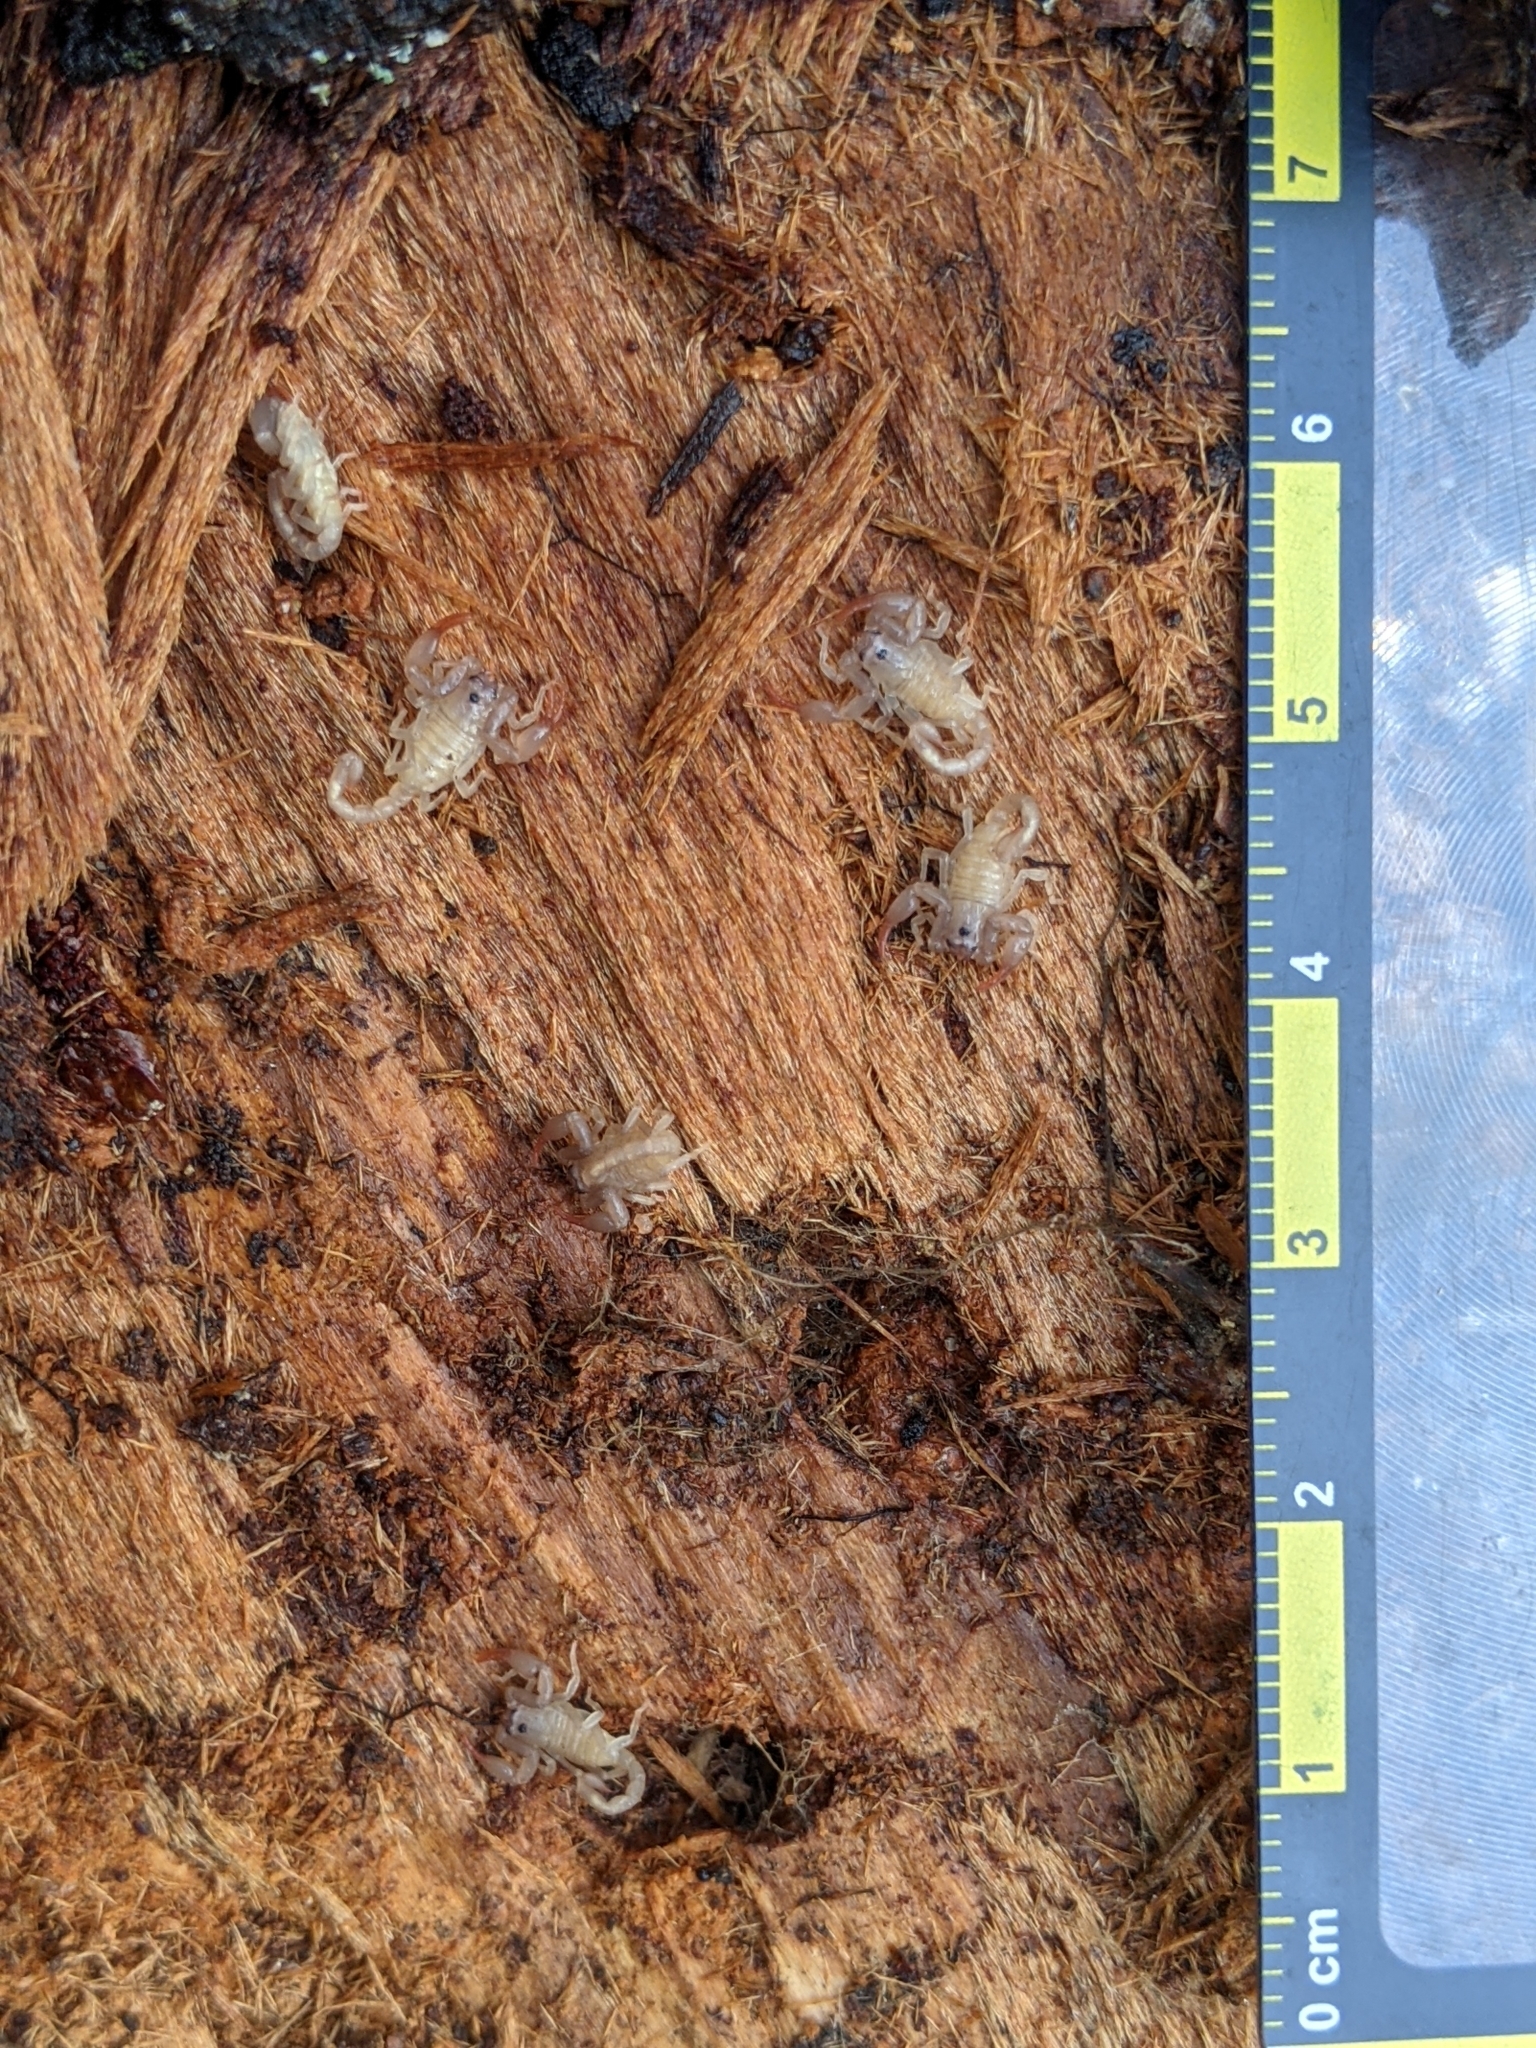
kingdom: Animalia
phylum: Arthropoda
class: Arachnida
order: Scorpiones
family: Chactidae
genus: Uroctonus
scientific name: Uroctonus mordax
